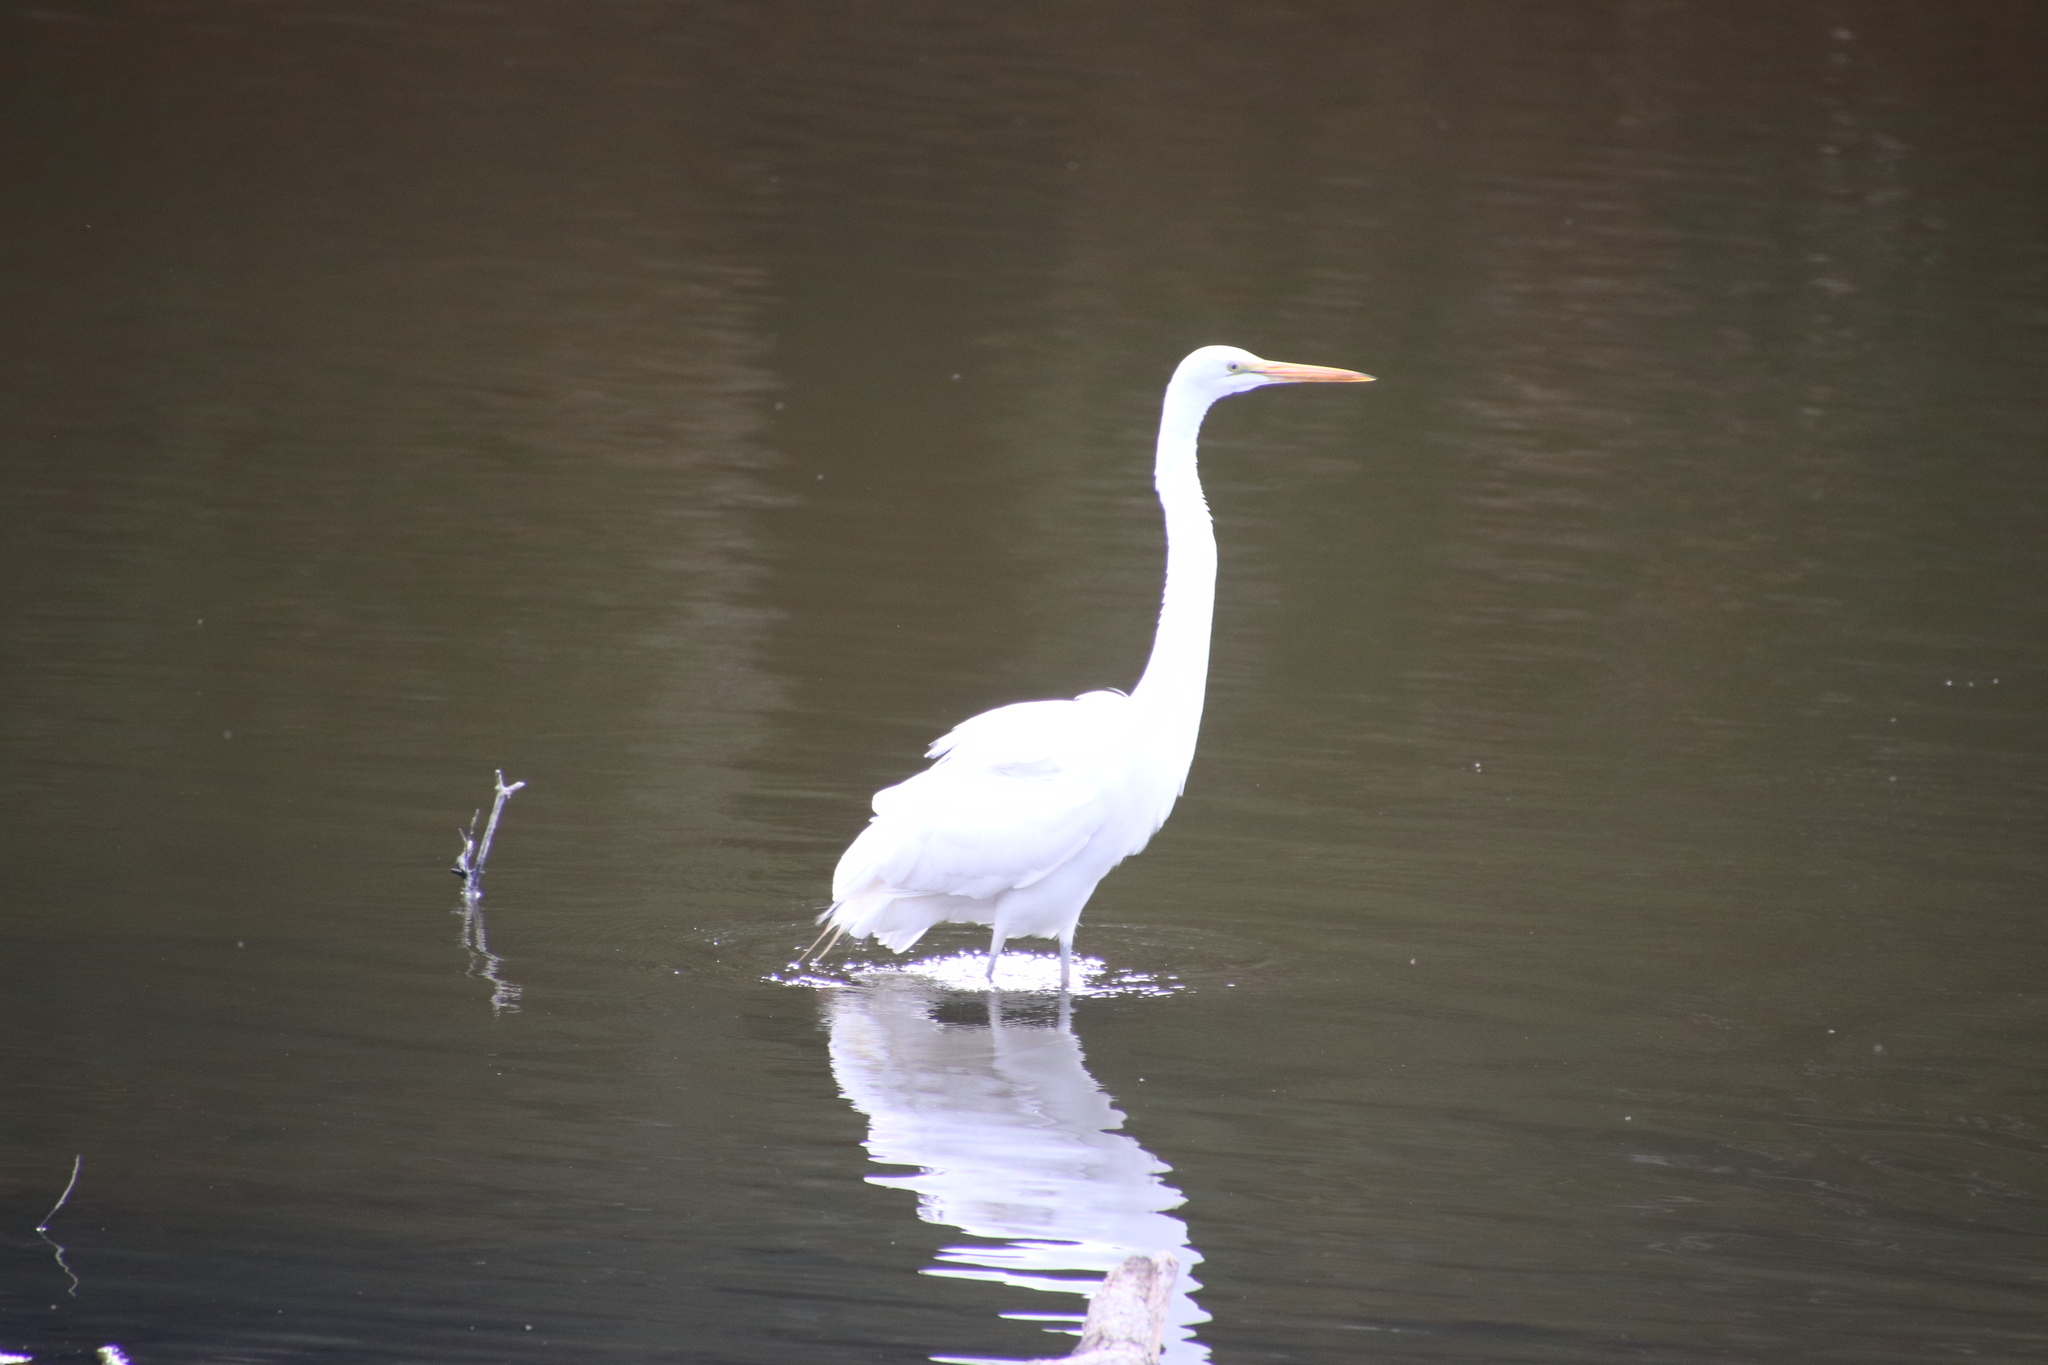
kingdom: Animalia
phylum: Chordata
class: Aves
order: Pelecaniformes
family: Ardeidae
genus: Ardea
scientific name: Ardea alba
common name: Great egret
